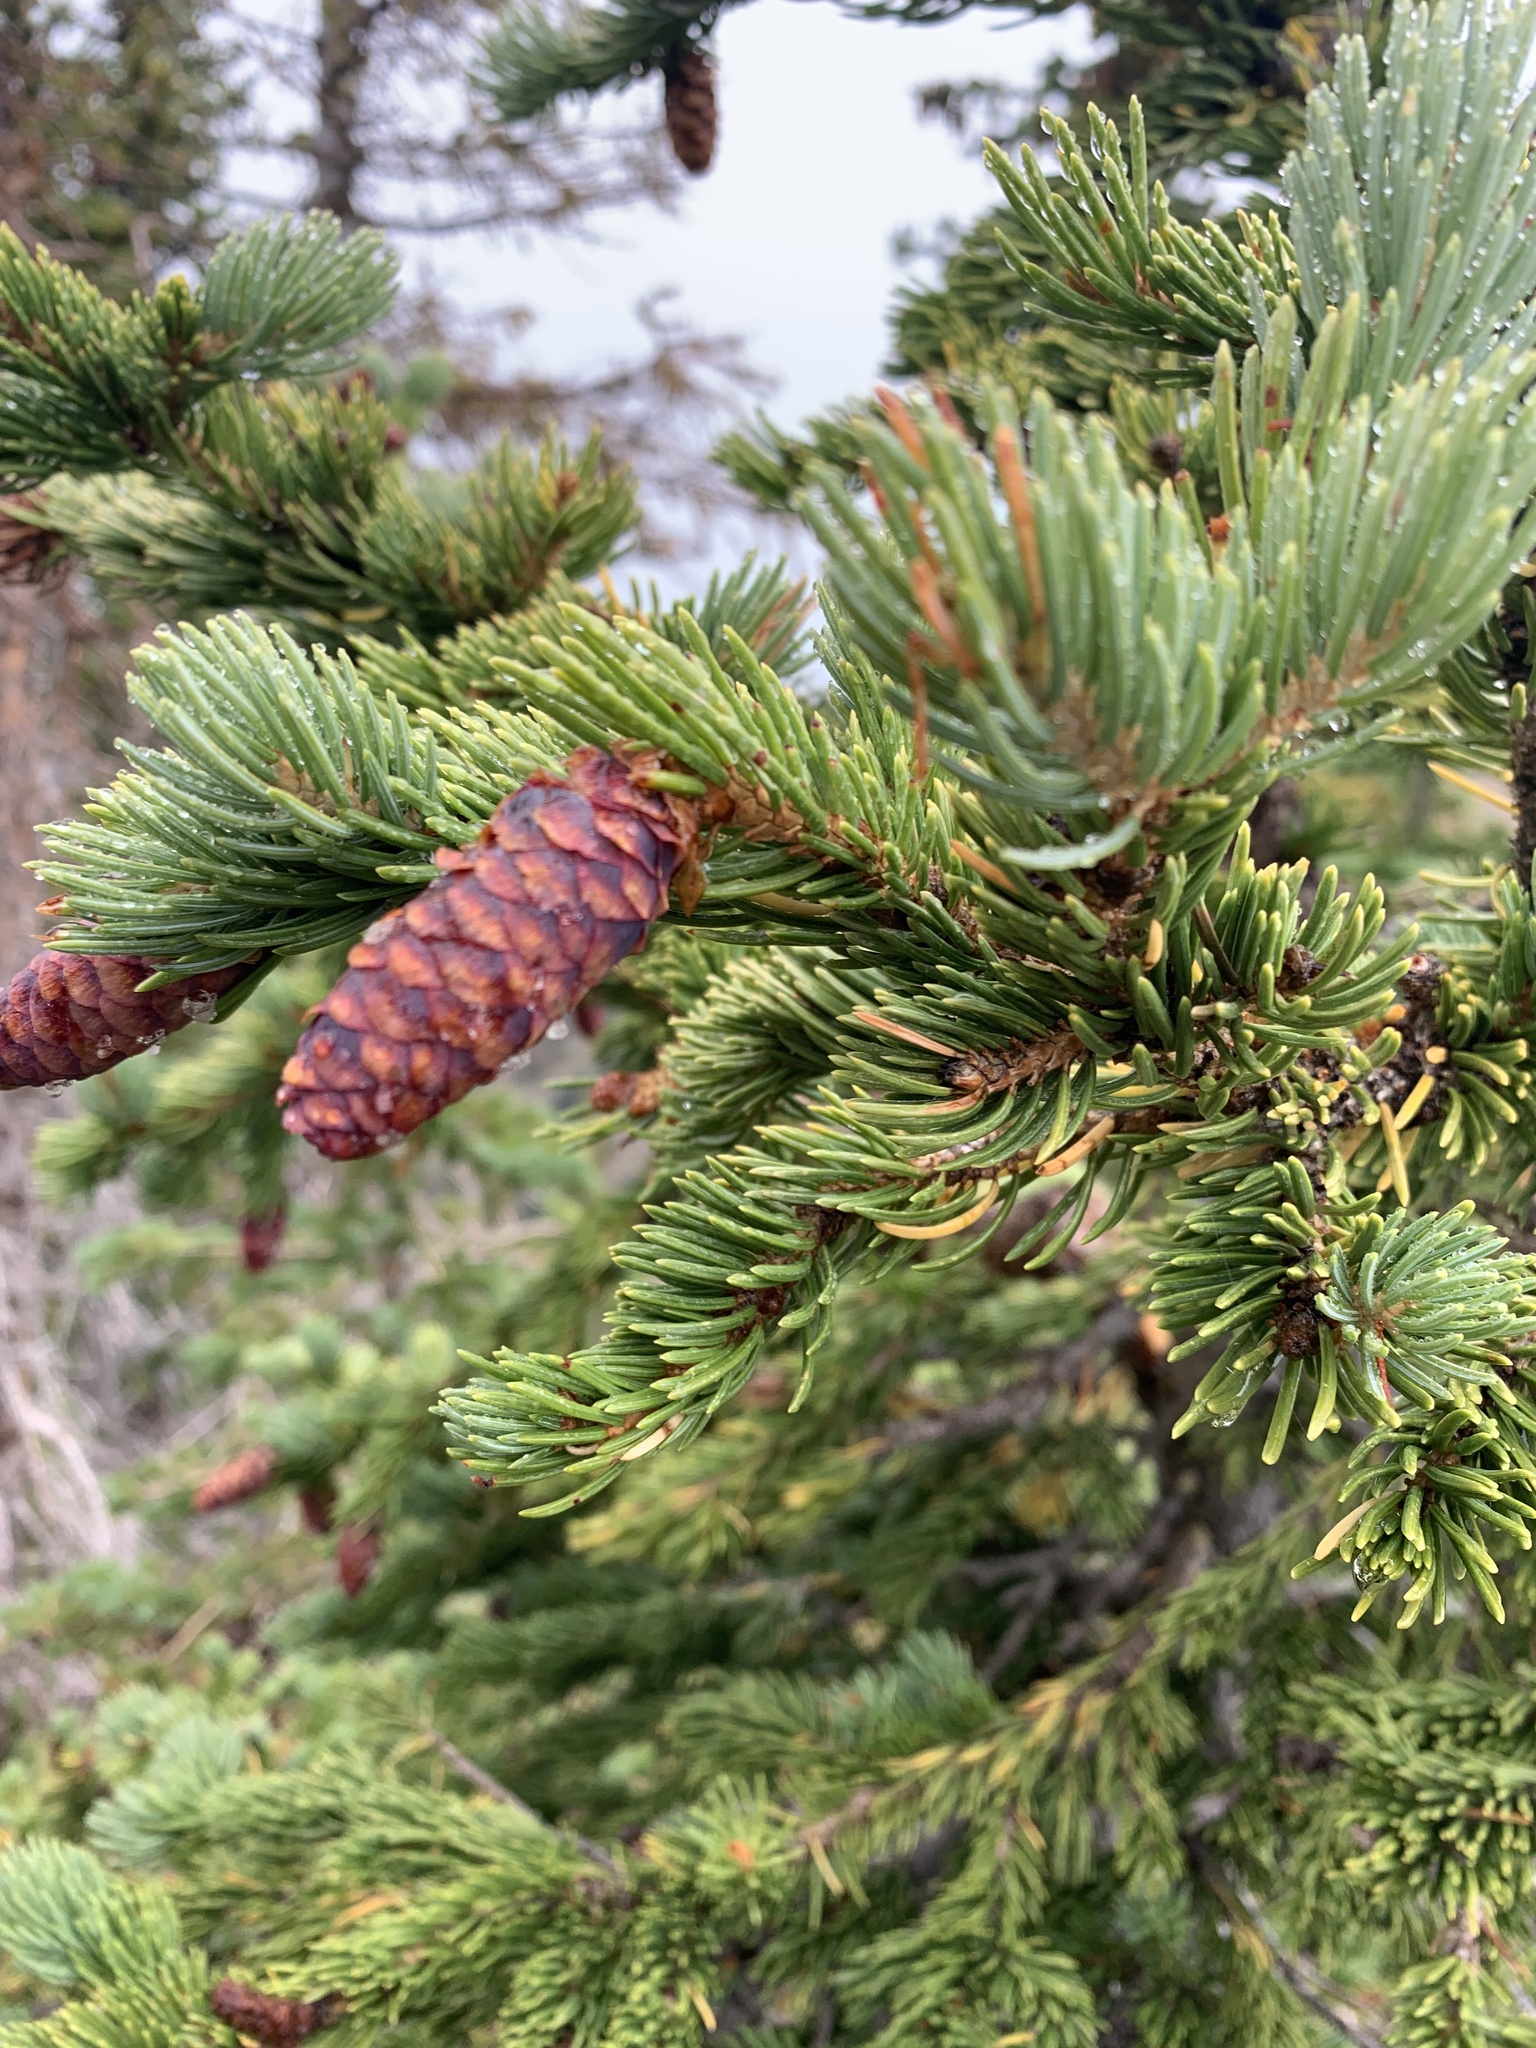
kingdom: Plantae
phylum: Tracheophyta
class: Pinopsida
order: Pinales
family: Pinaceae
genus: Picea
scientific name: Picea engelmannii
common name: Engelmann spruce
